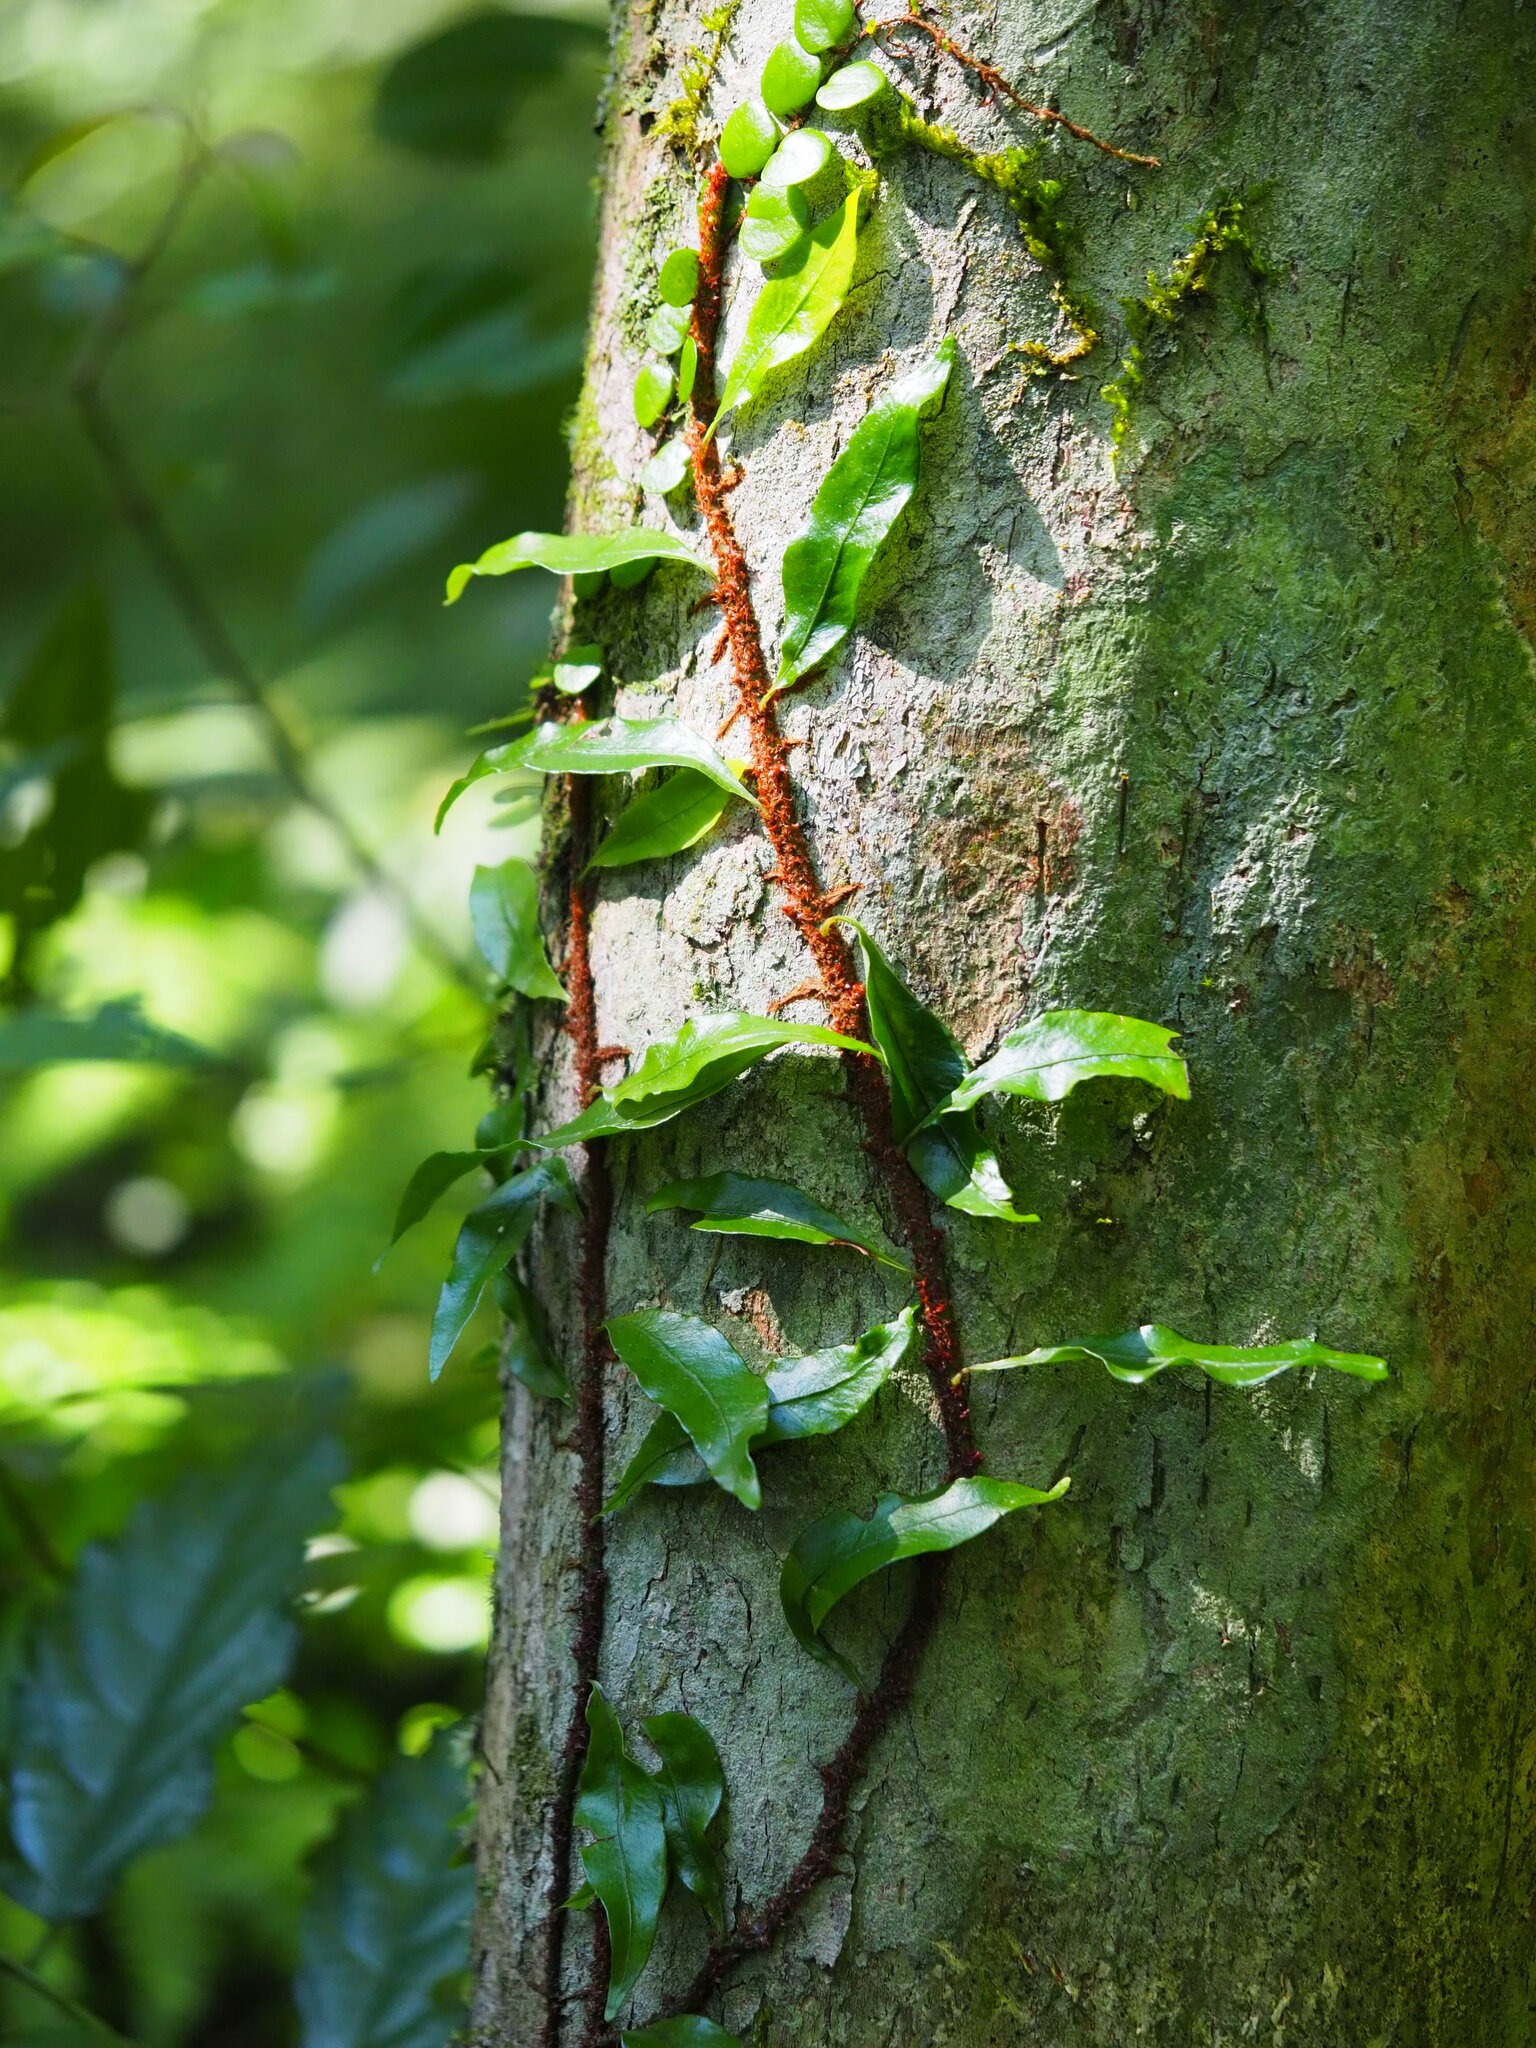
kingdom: Plantae
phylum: Tracheophyta
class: Polypodiopsida
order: Polypodiales
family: Polypodiaceae
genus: Lepisorus
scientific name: Lepisorus superficialis
